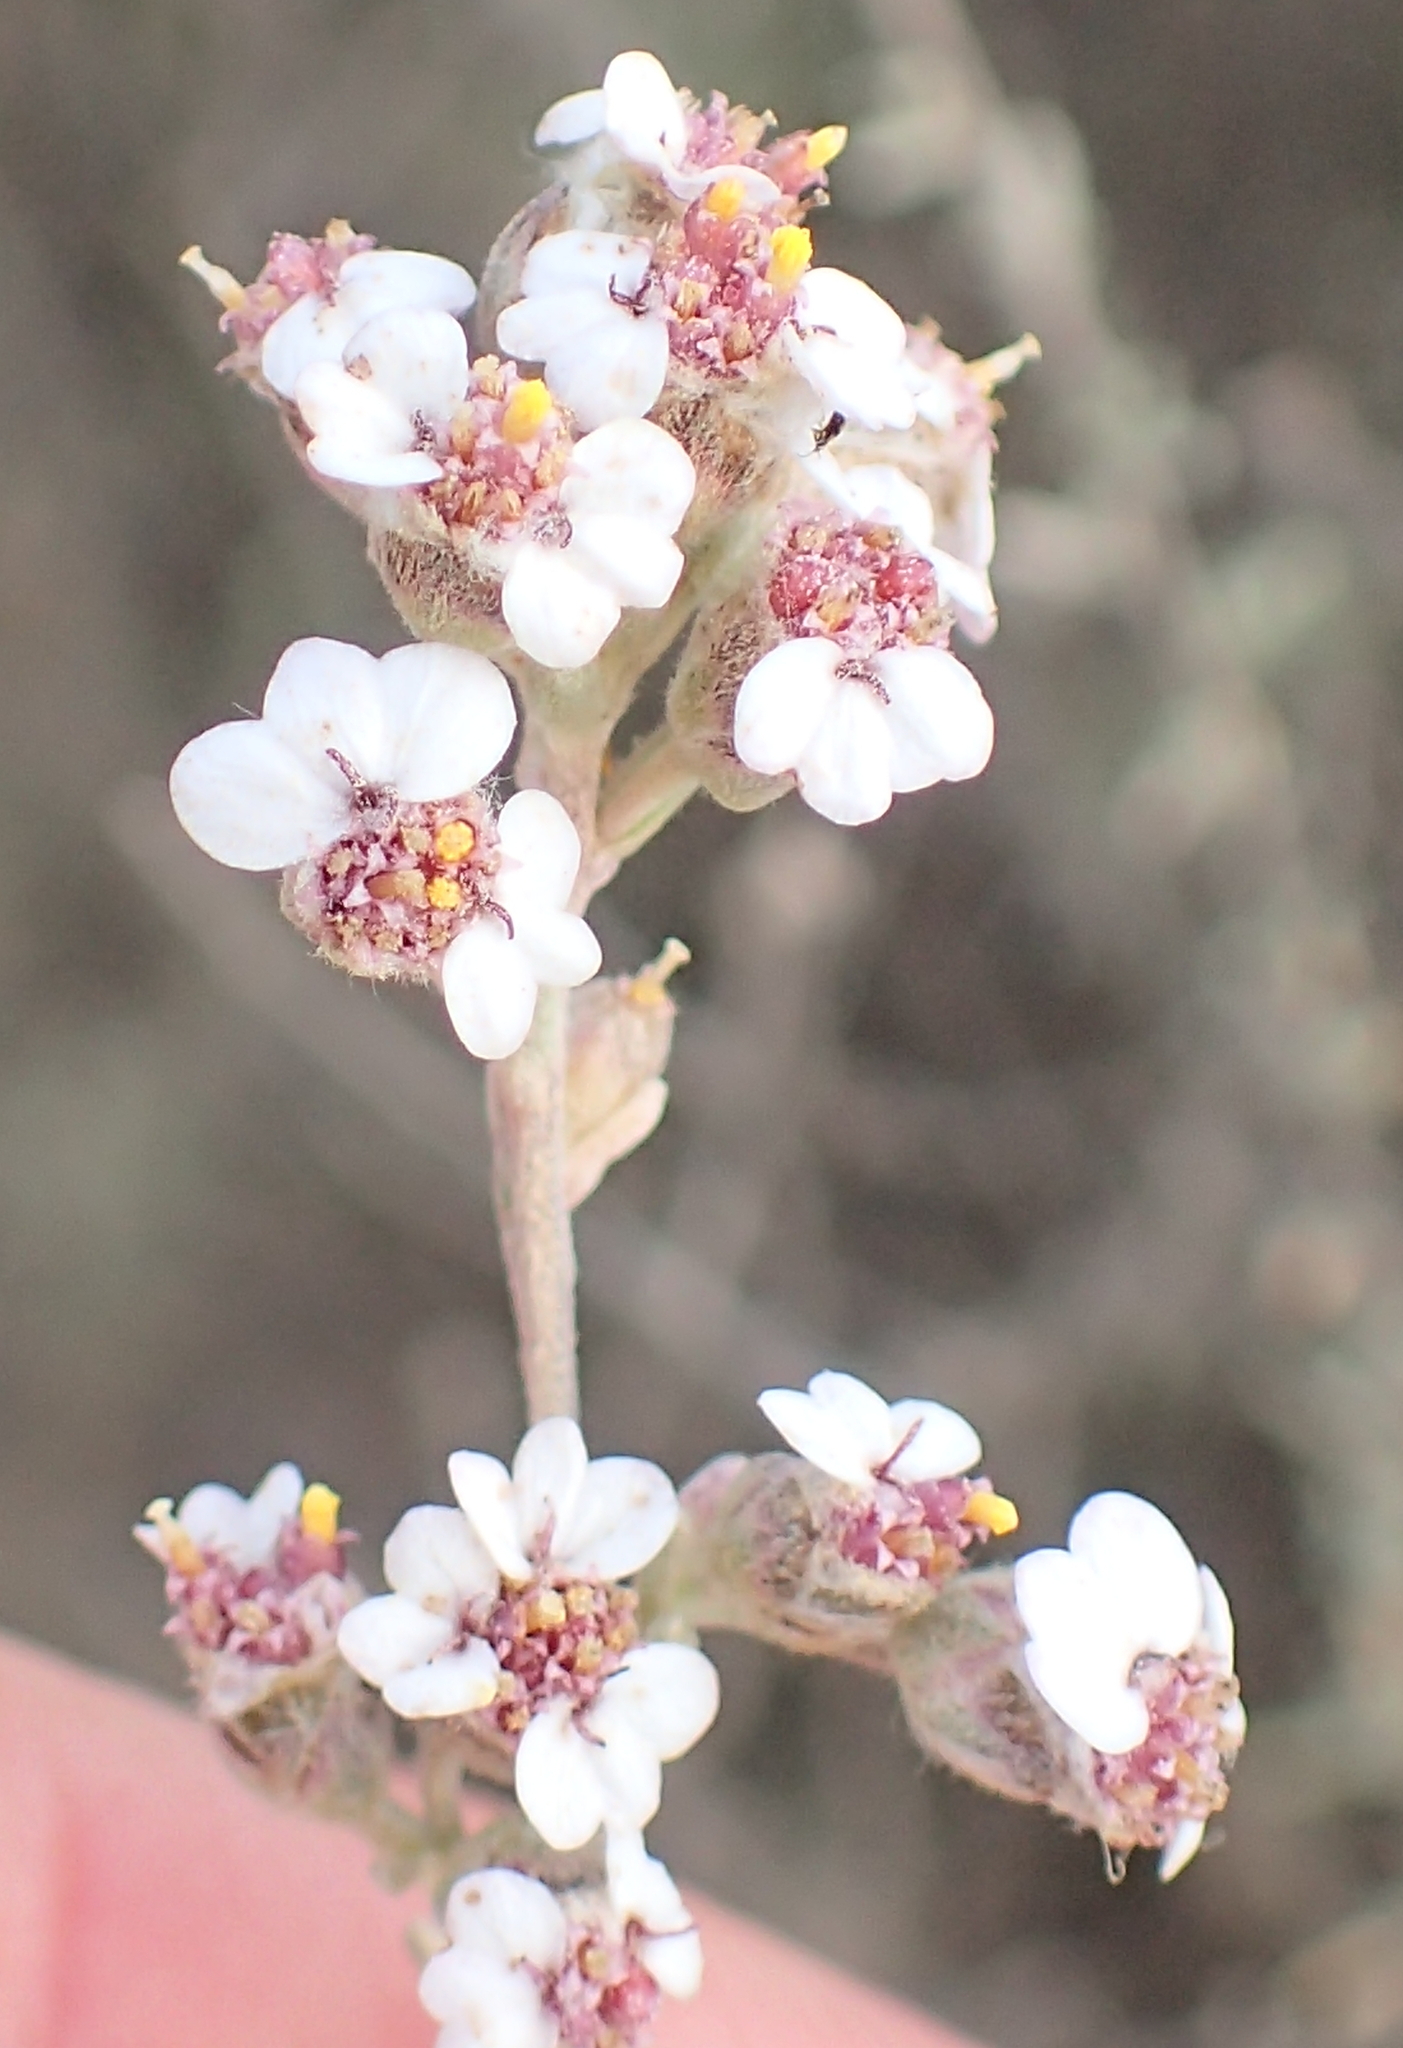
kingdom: Plantae
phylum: Tracheophyta
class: Magnoliopsida
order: Asterales
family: Asteraceae
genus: Eriocephalus
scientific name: Eriocephalus africanus
